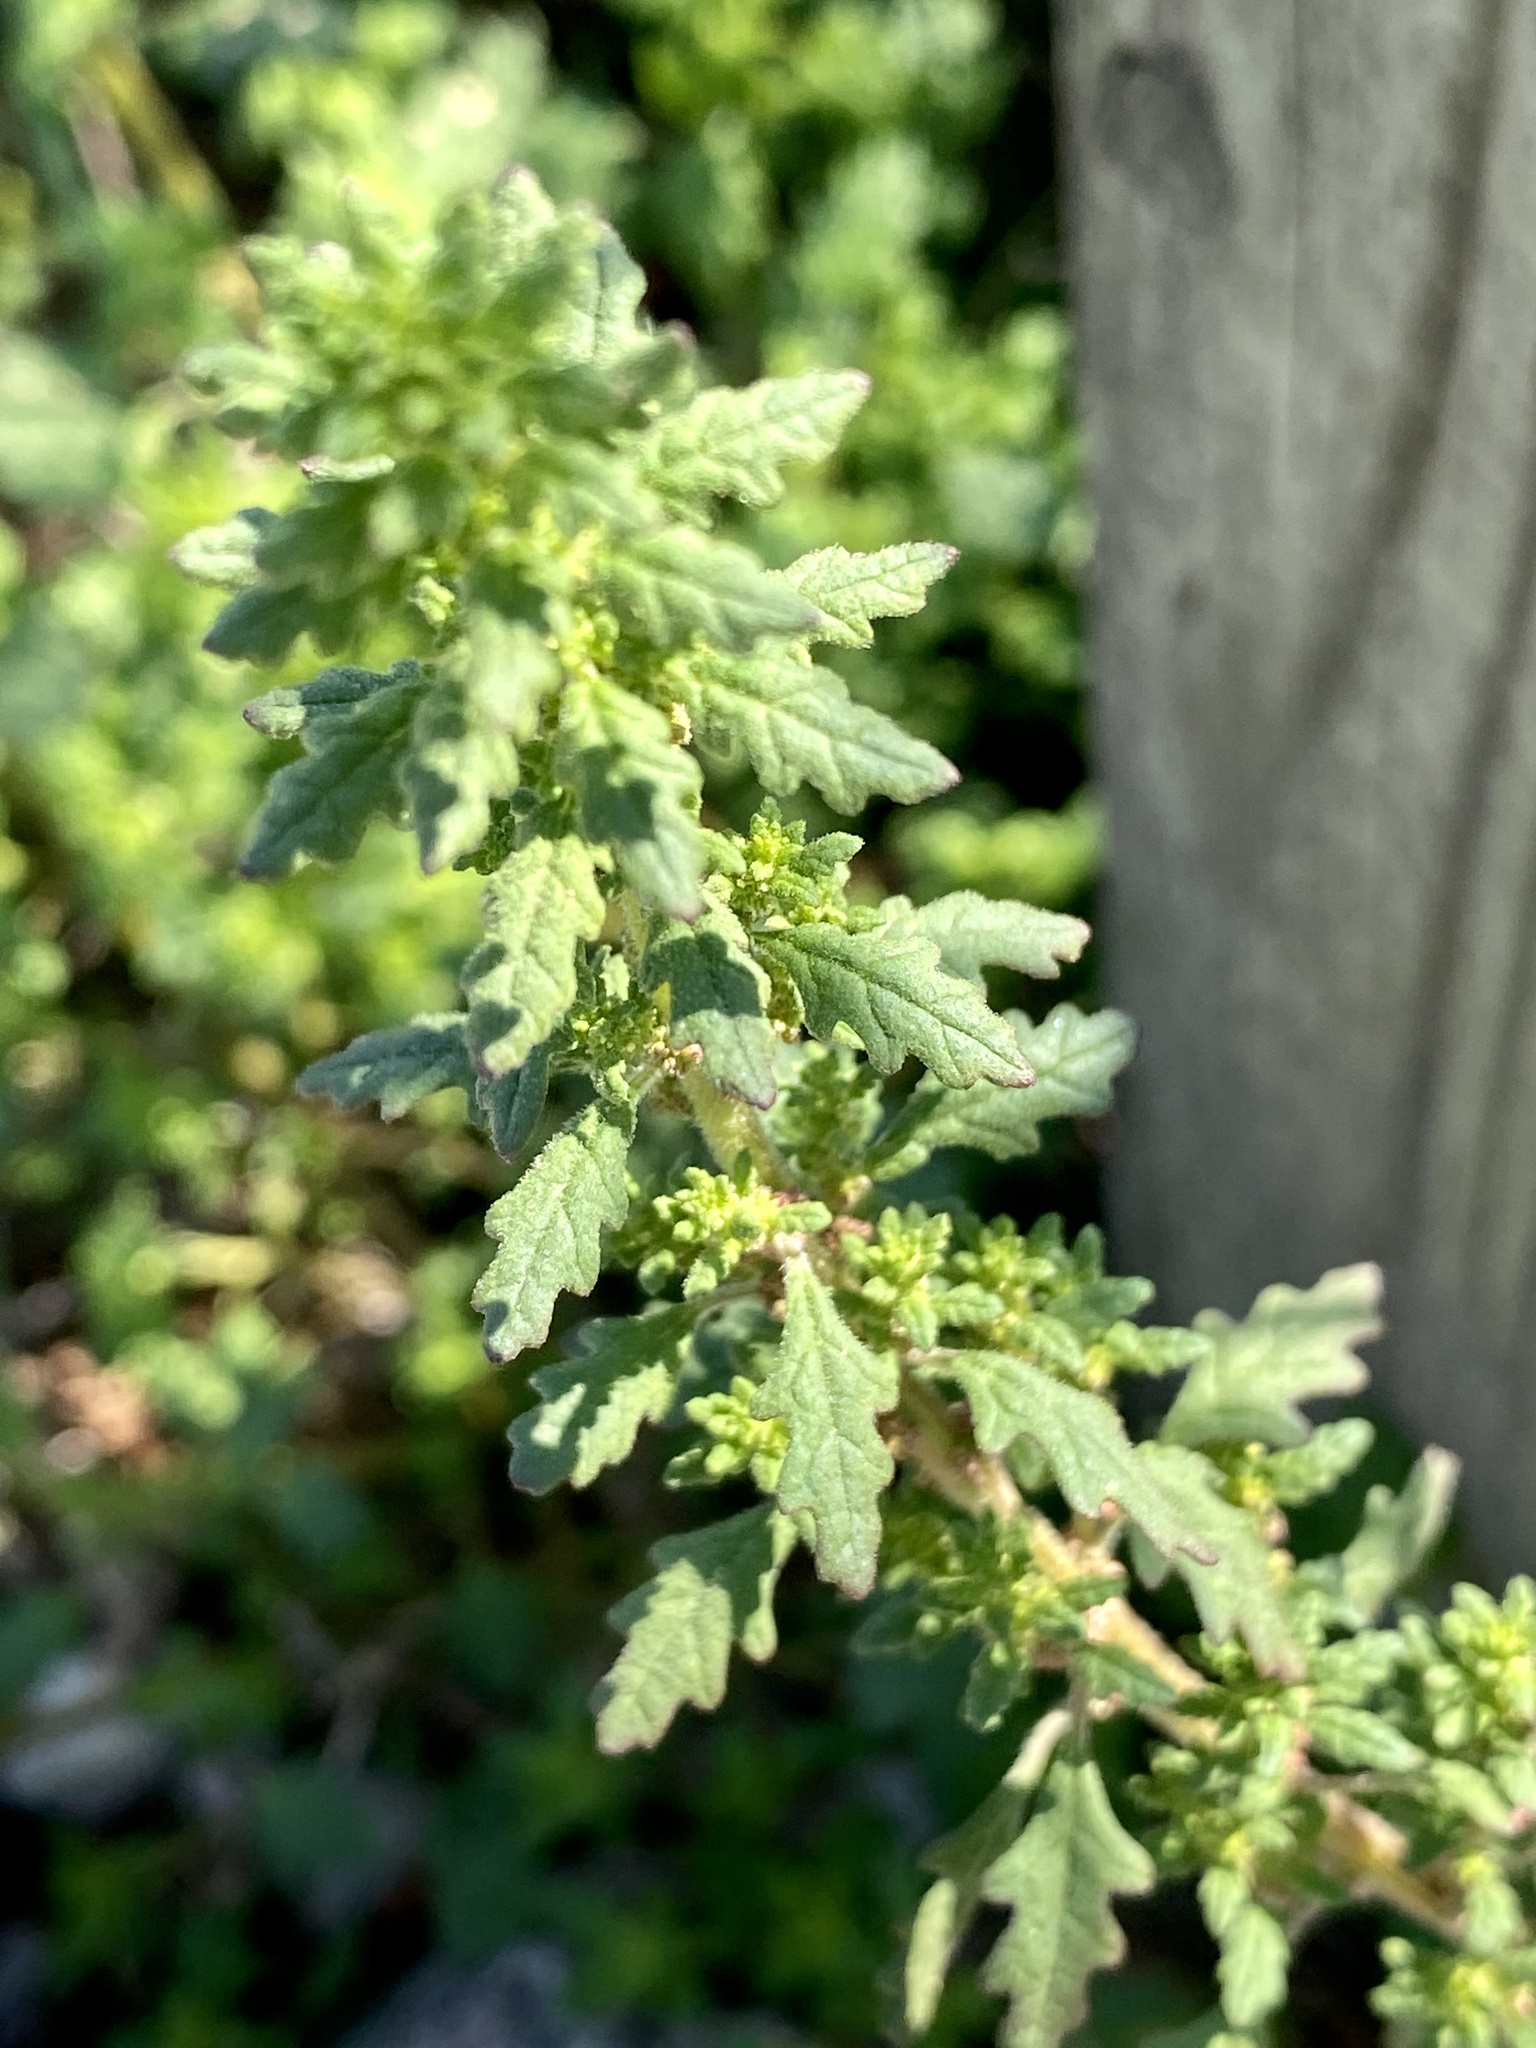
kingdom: Plantae
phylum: Tracheophyta
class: Magnoliopsida
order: Caryophyllales
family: Amaranthaceae
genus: Dysphania
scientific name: Dysphania pumilio
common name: Clammy goosefoot
